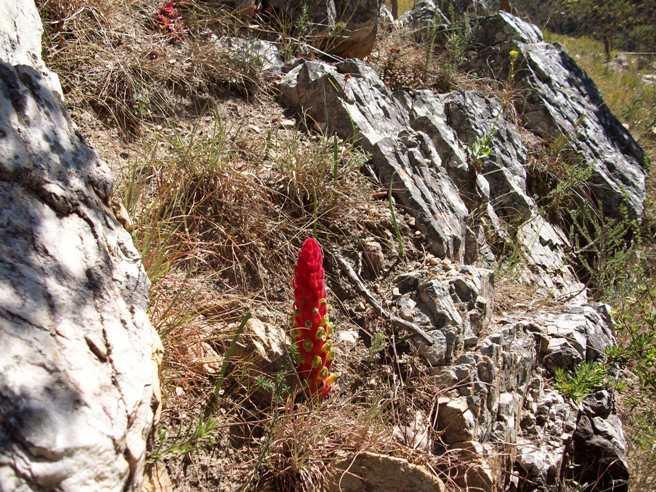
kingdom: Plantae
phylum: Tracheophyta
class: Magnoliopsida
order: Lamiales
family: Orobanchaceae
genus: Harveya
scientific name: Harveya hyobanchoides
